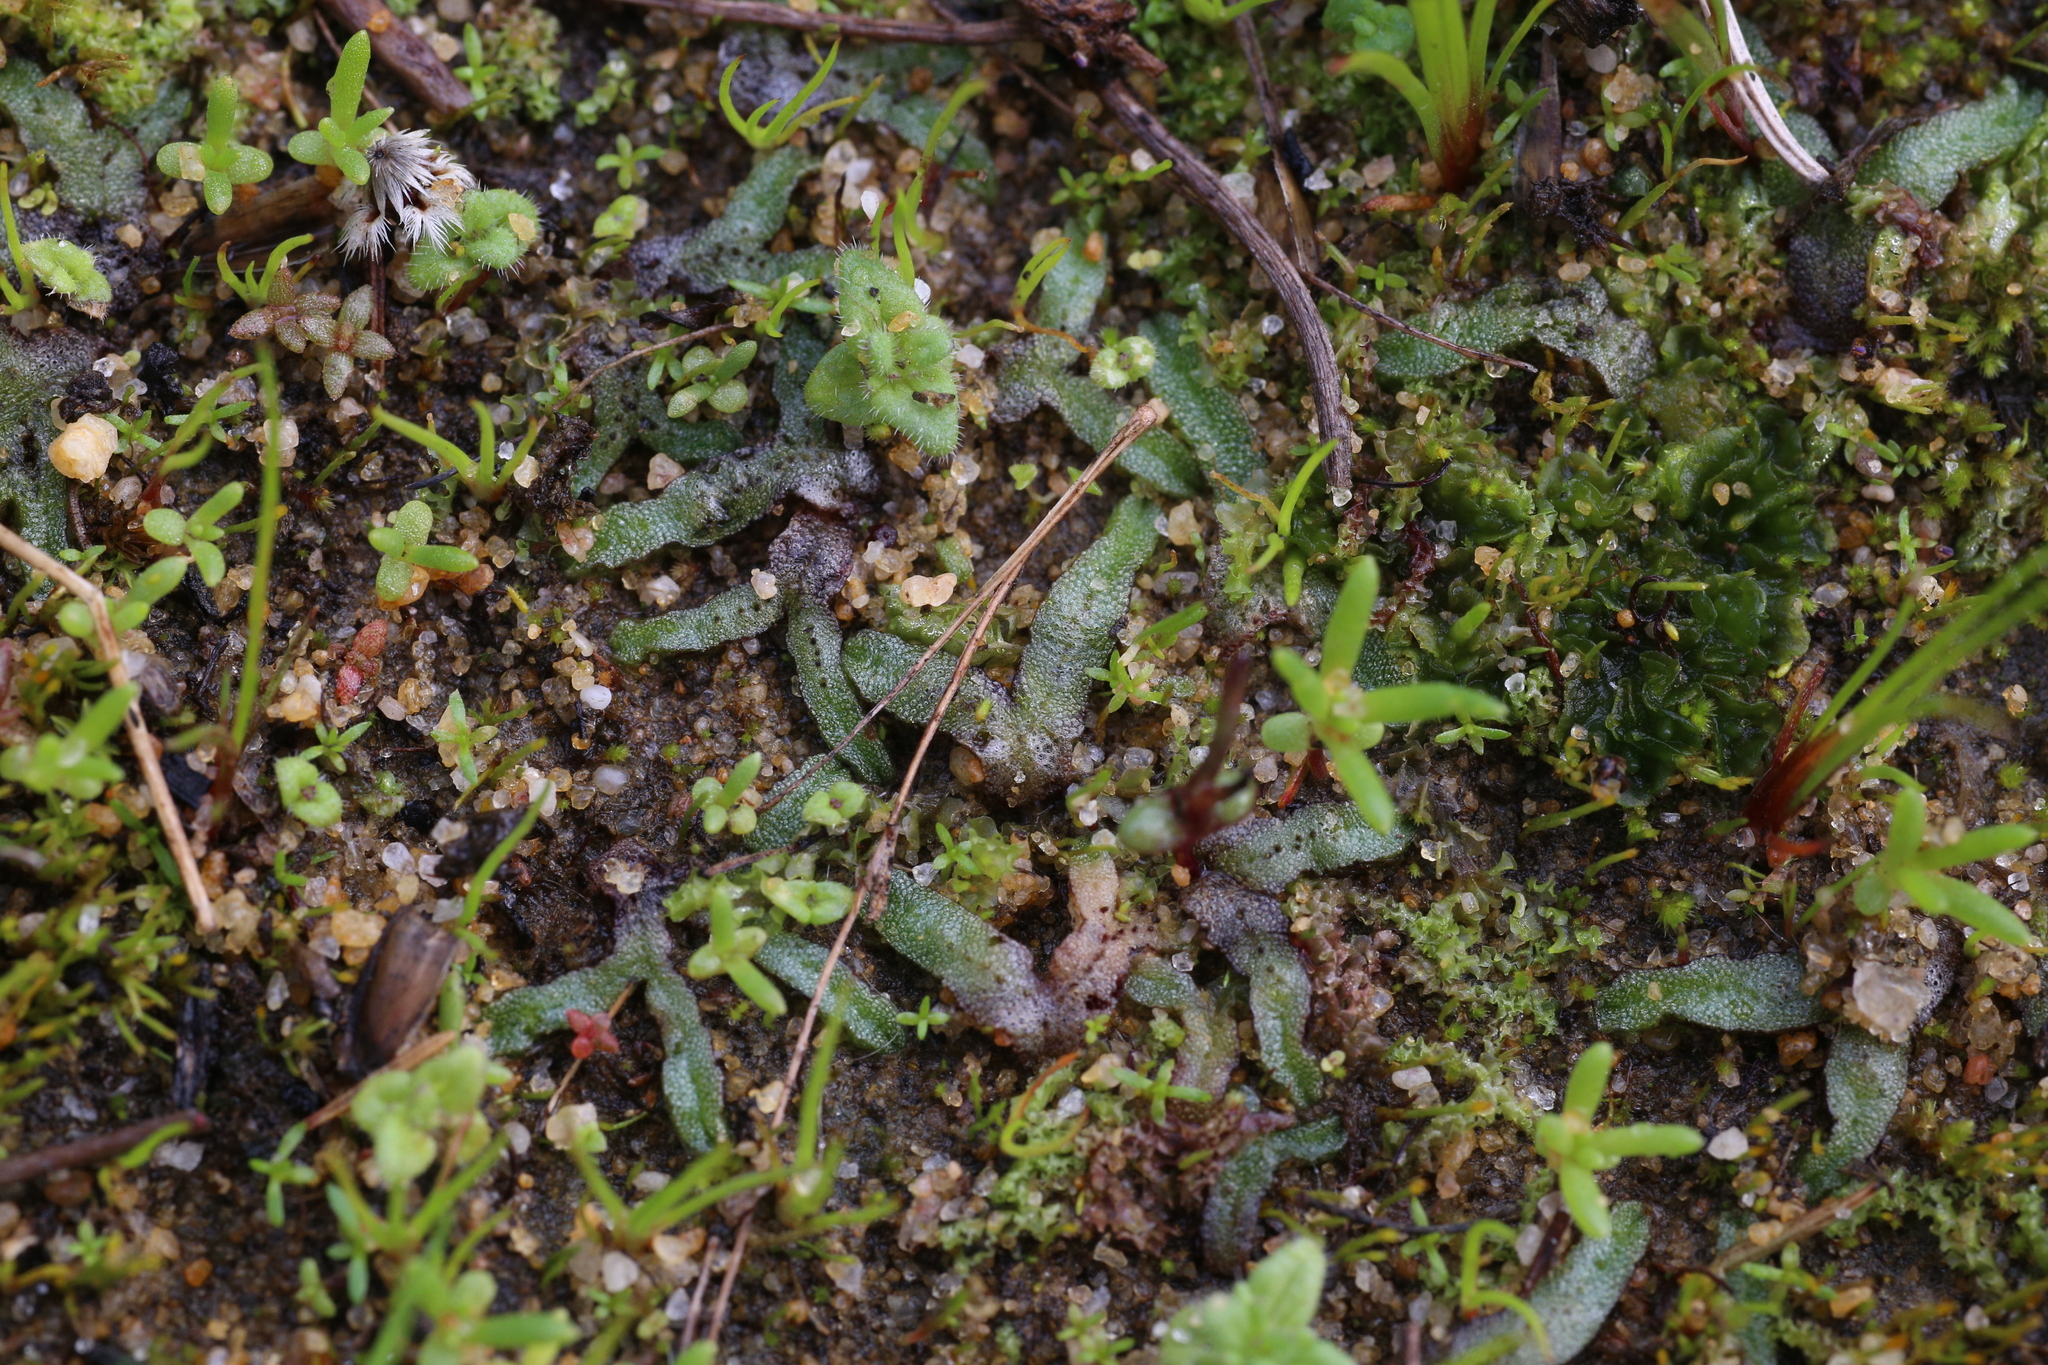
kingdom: Plantae
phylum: Marchantiophyta
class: Marchantiopsida
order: Marchantiales
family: Ricciaceae
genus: Riccia
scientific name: Riccia sorocarpa
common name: Common crystalwort
